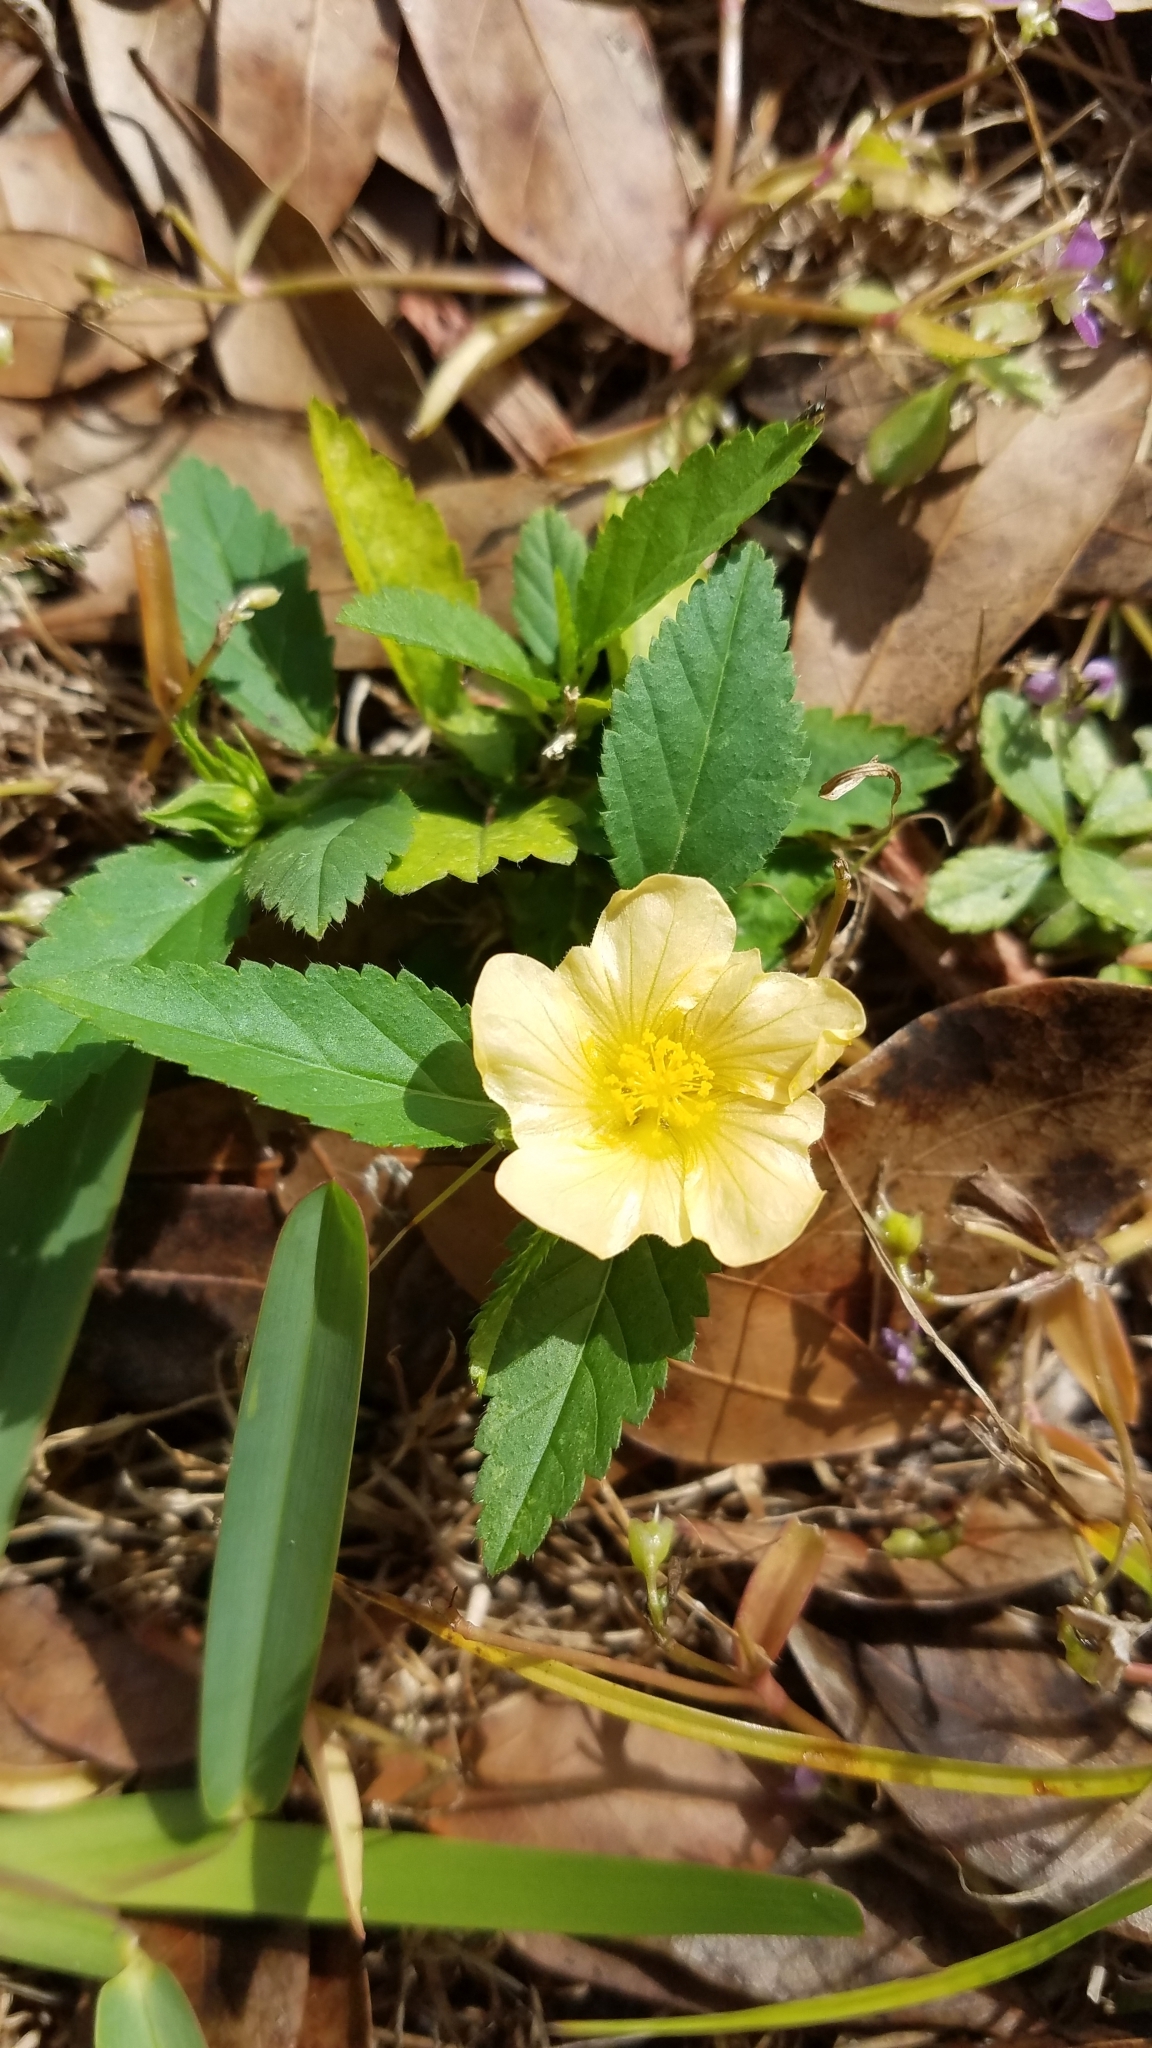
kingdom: Plantae
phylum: Tracheophyta
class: Magnoliopsida
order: Malvales
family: Malvaceae
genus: Sida
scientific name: Sida rhombifolia
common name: Queensland-hemp
